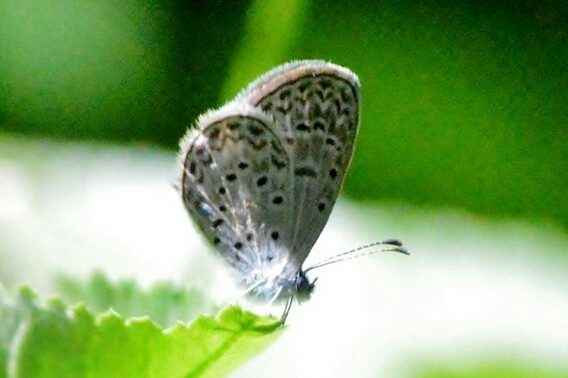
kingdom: Animalia
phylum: Arthropoda
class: Insecta
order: Lepidoptera
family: Lycaenidae
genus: Lycaena
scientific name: Lycaena cyna
